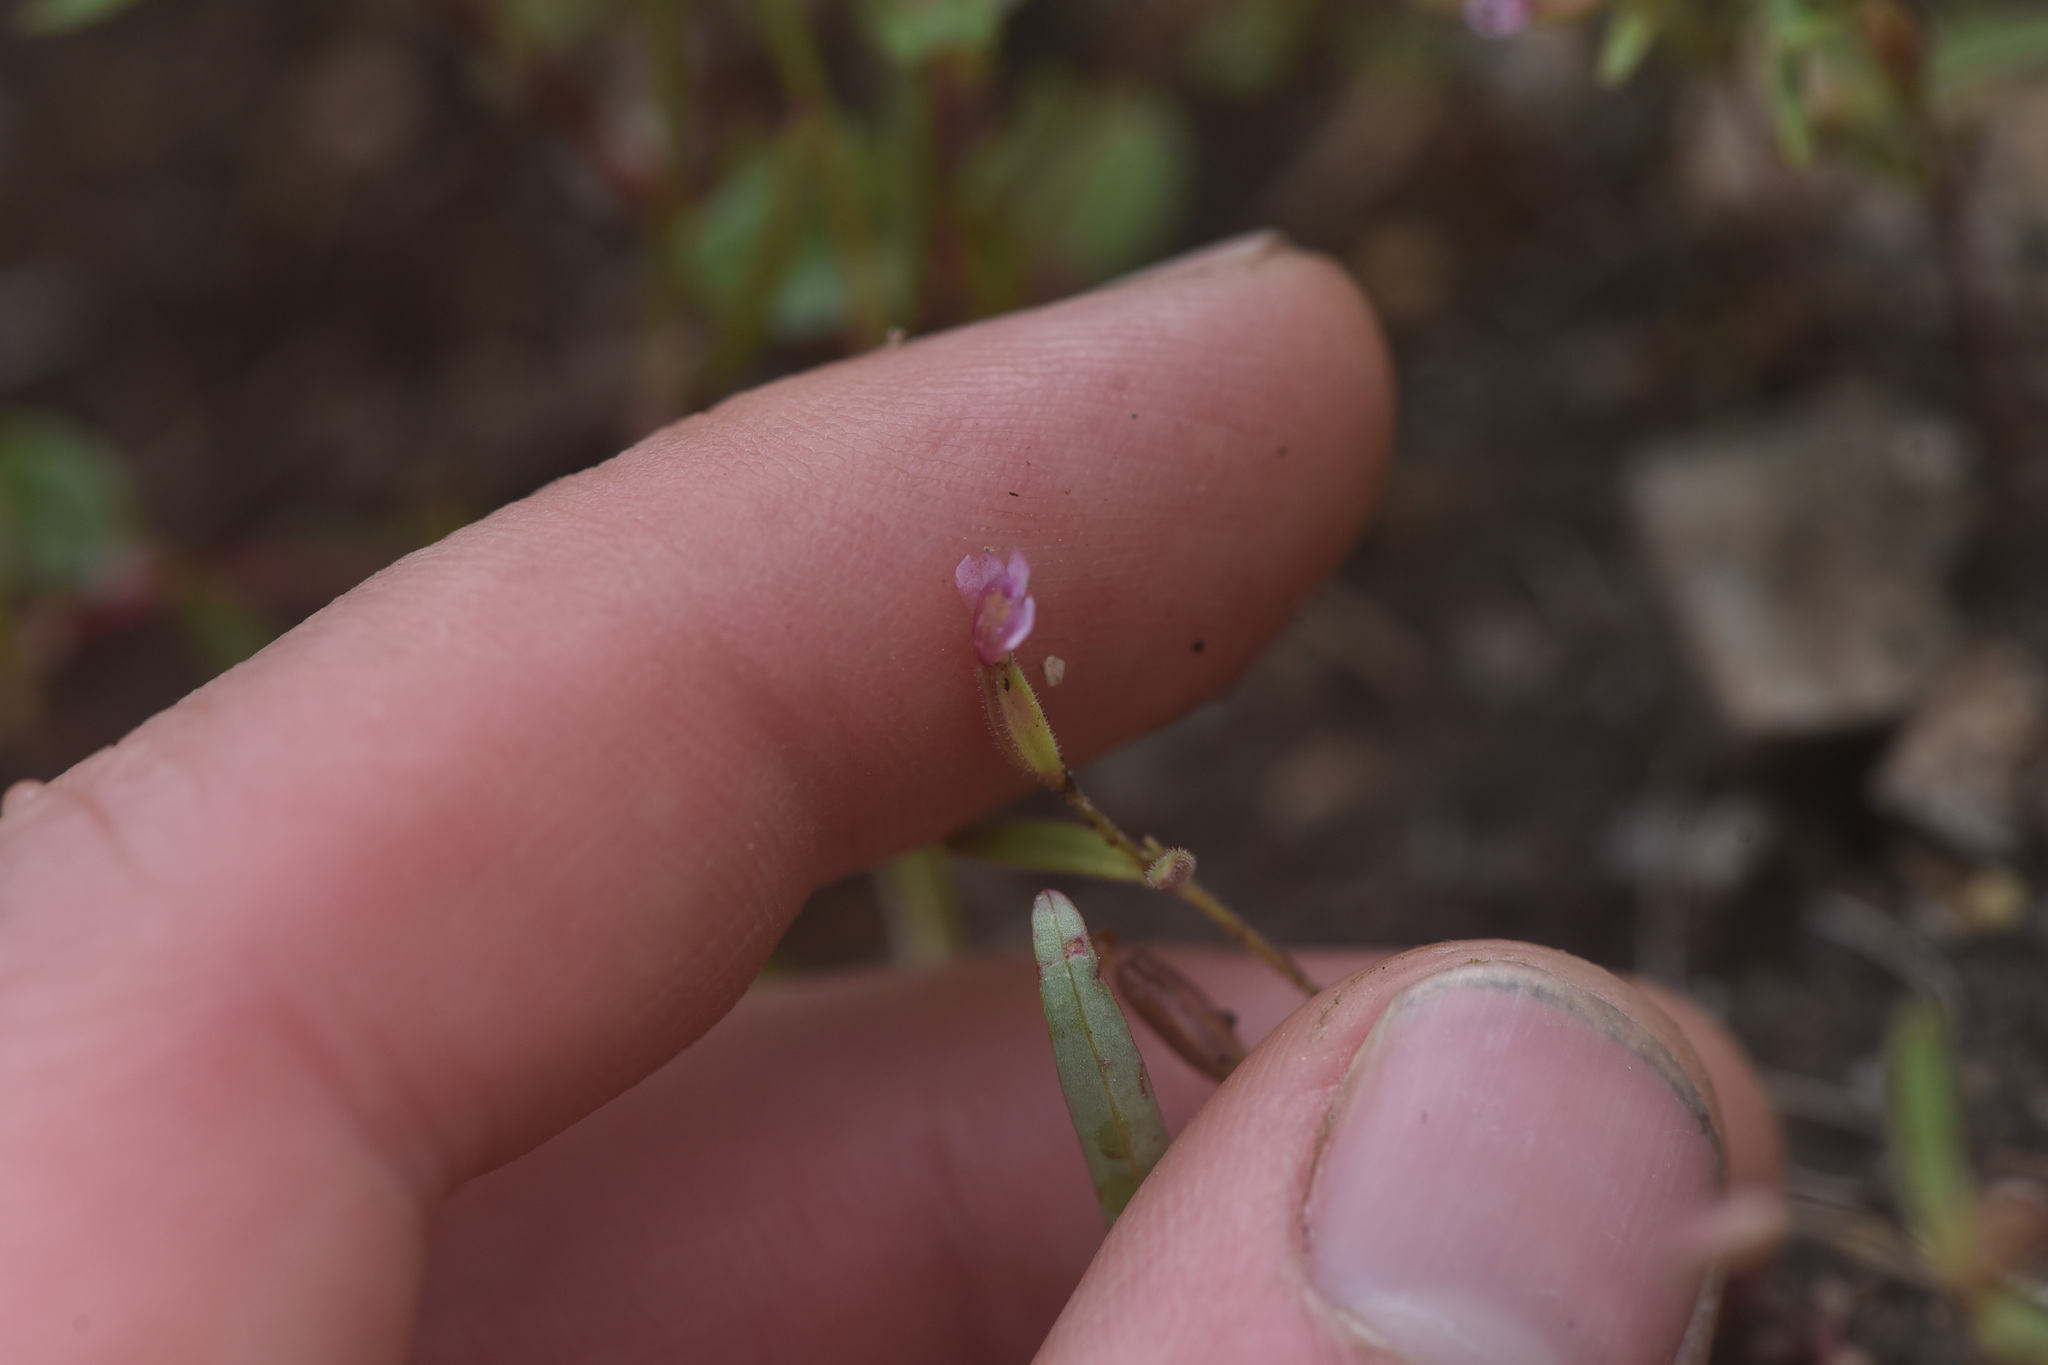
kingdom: Plantae
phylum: Tracheophyta
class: Magnoliopsida
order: Lamiales
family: Phrymaceae
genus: Erythranthe
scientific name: Erythranthe breweri
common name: Brewer's monkeyflower
